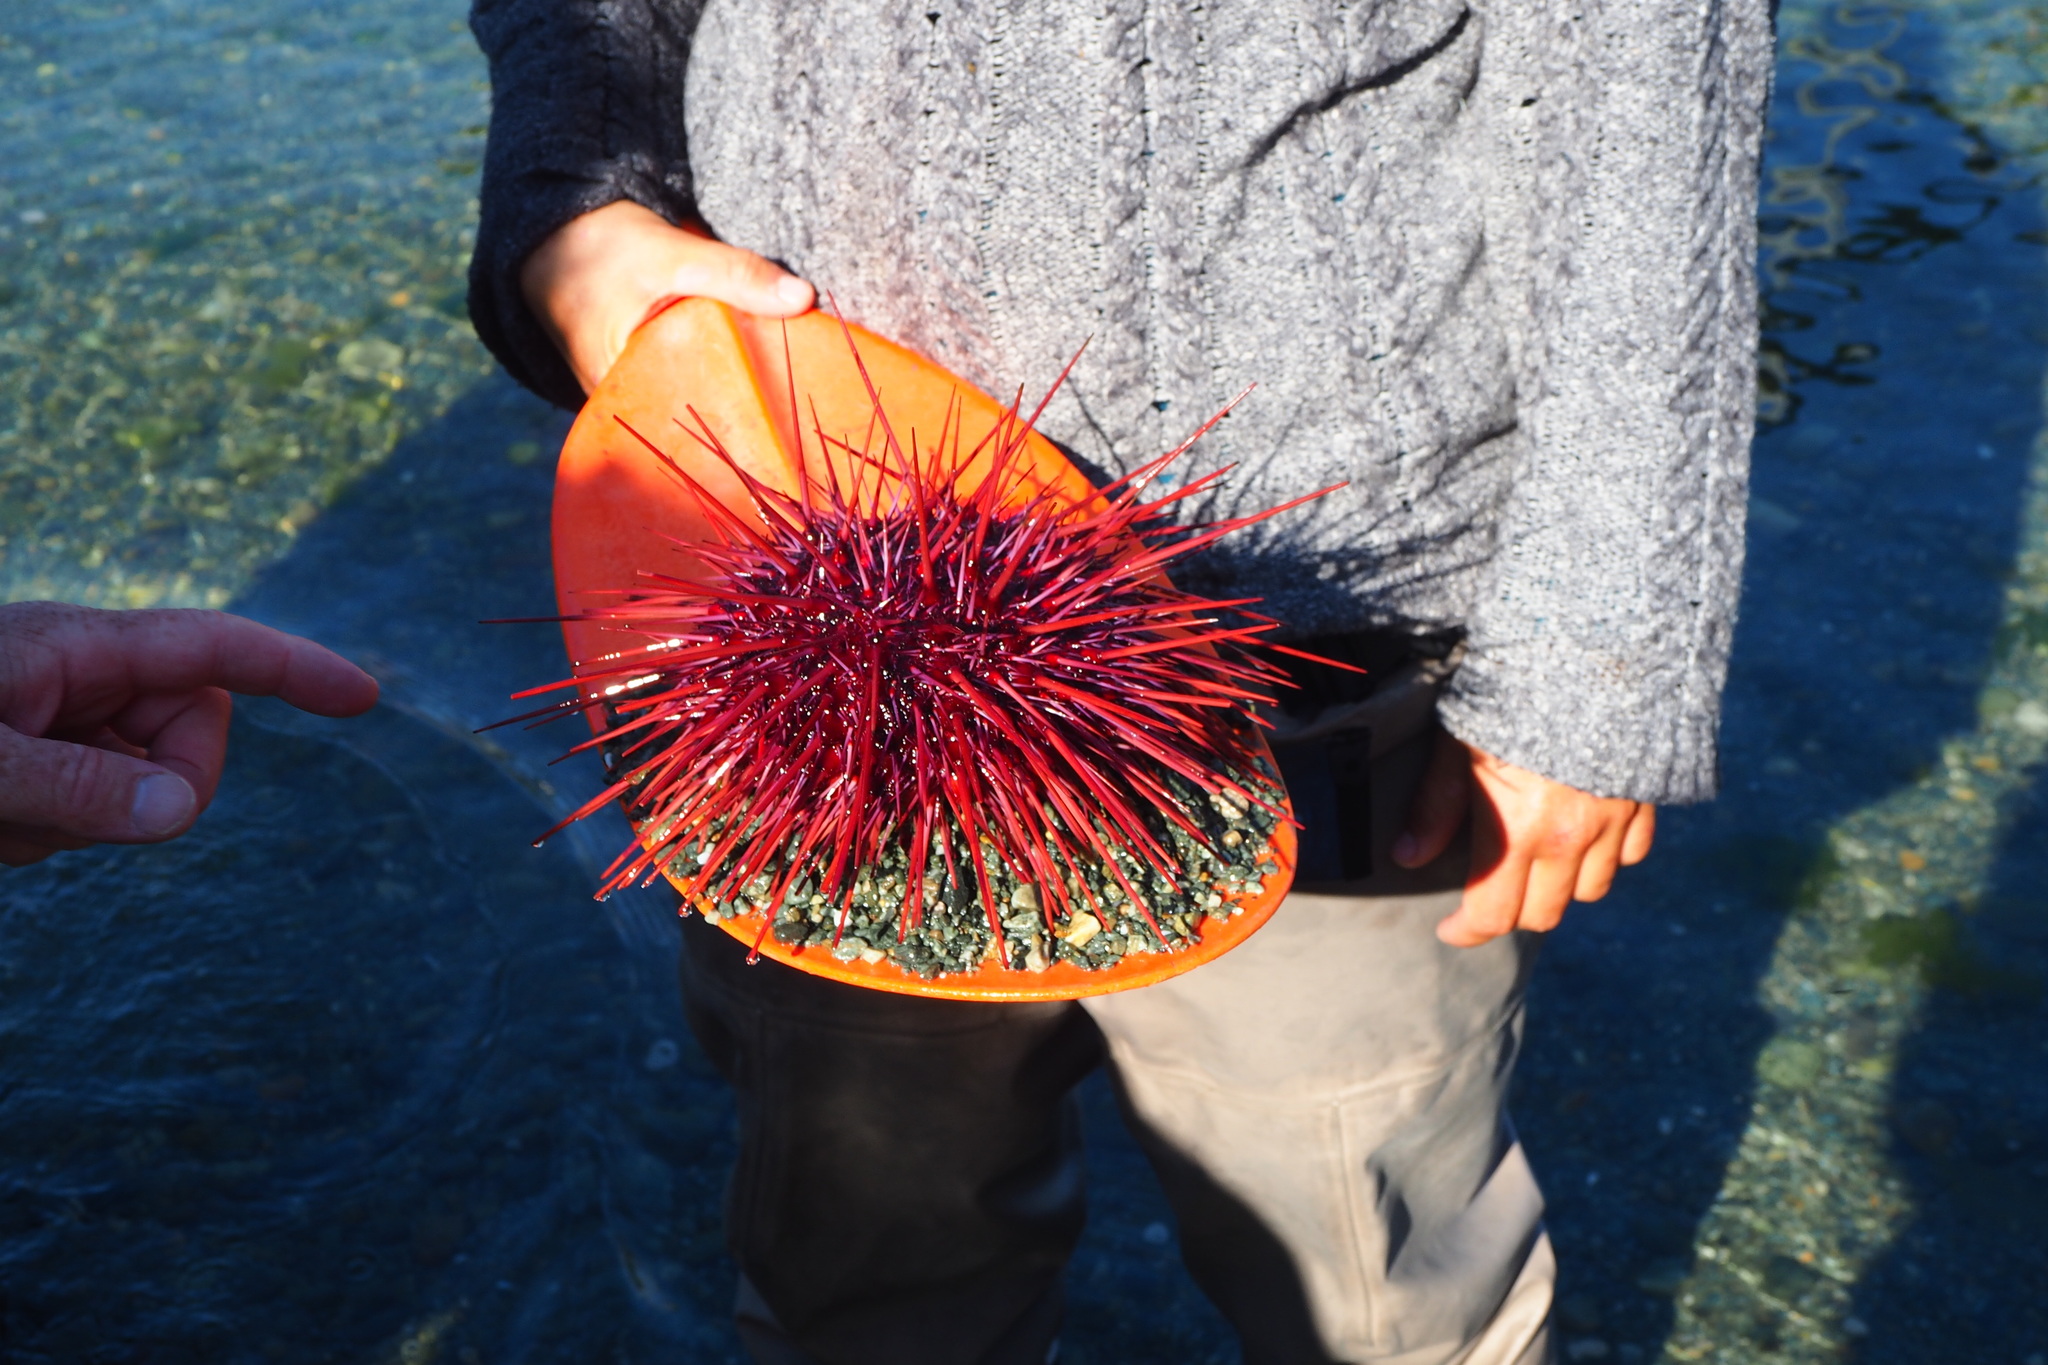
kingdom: Animalia
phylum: Echinodermata
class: Echinoidea
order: Camarodonta
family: Strongylocentrotidae
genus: Mesocentrotus
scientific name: Mesocentrotus franciscanus
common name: Red sea urchin
